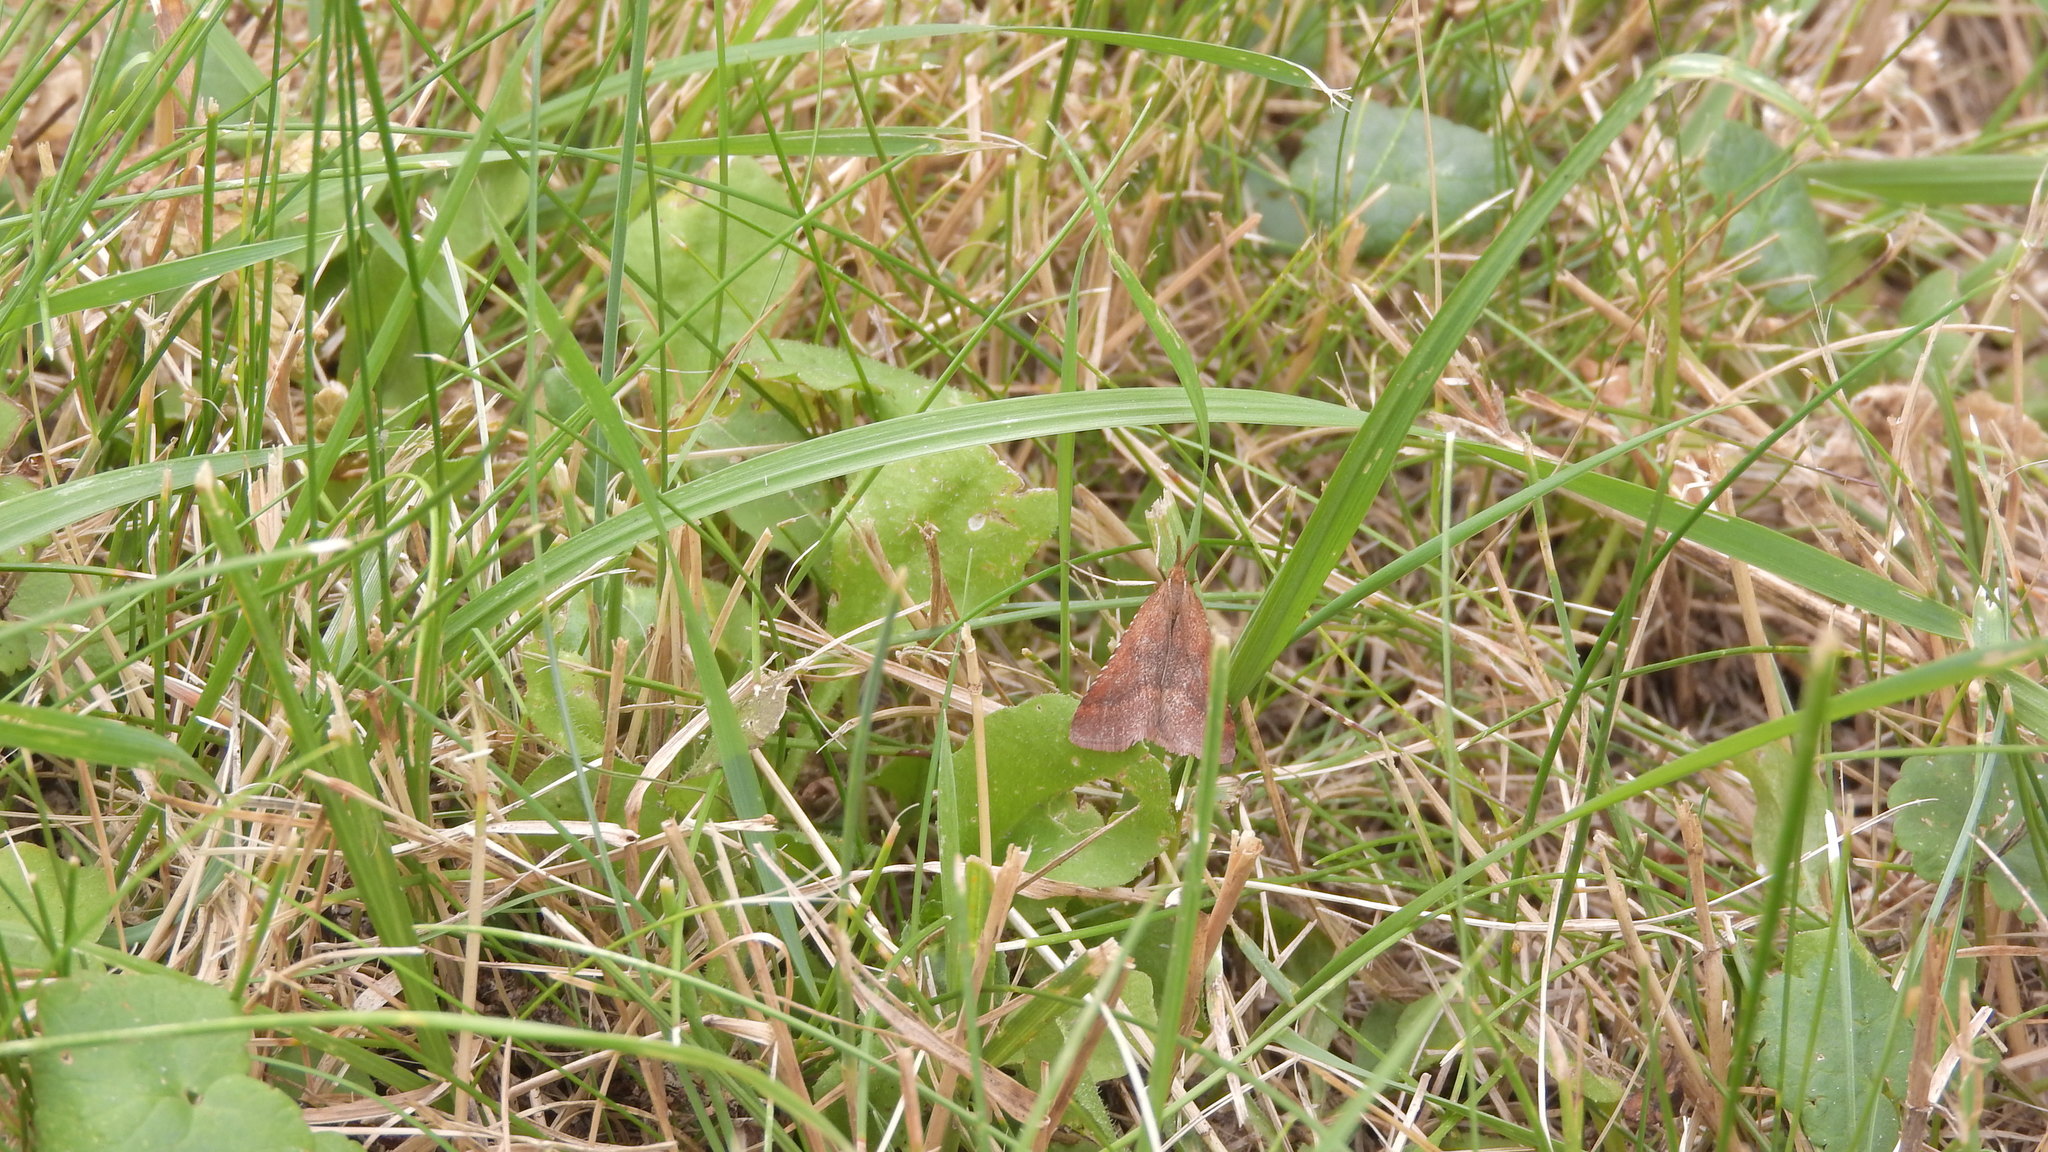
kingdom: Animalia
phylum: Arthropoda
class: Insecta
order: Lepidoptera
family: Pyralidae
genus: Synaphe
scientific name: Synaphe punctalis
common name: Long-legged tabby
